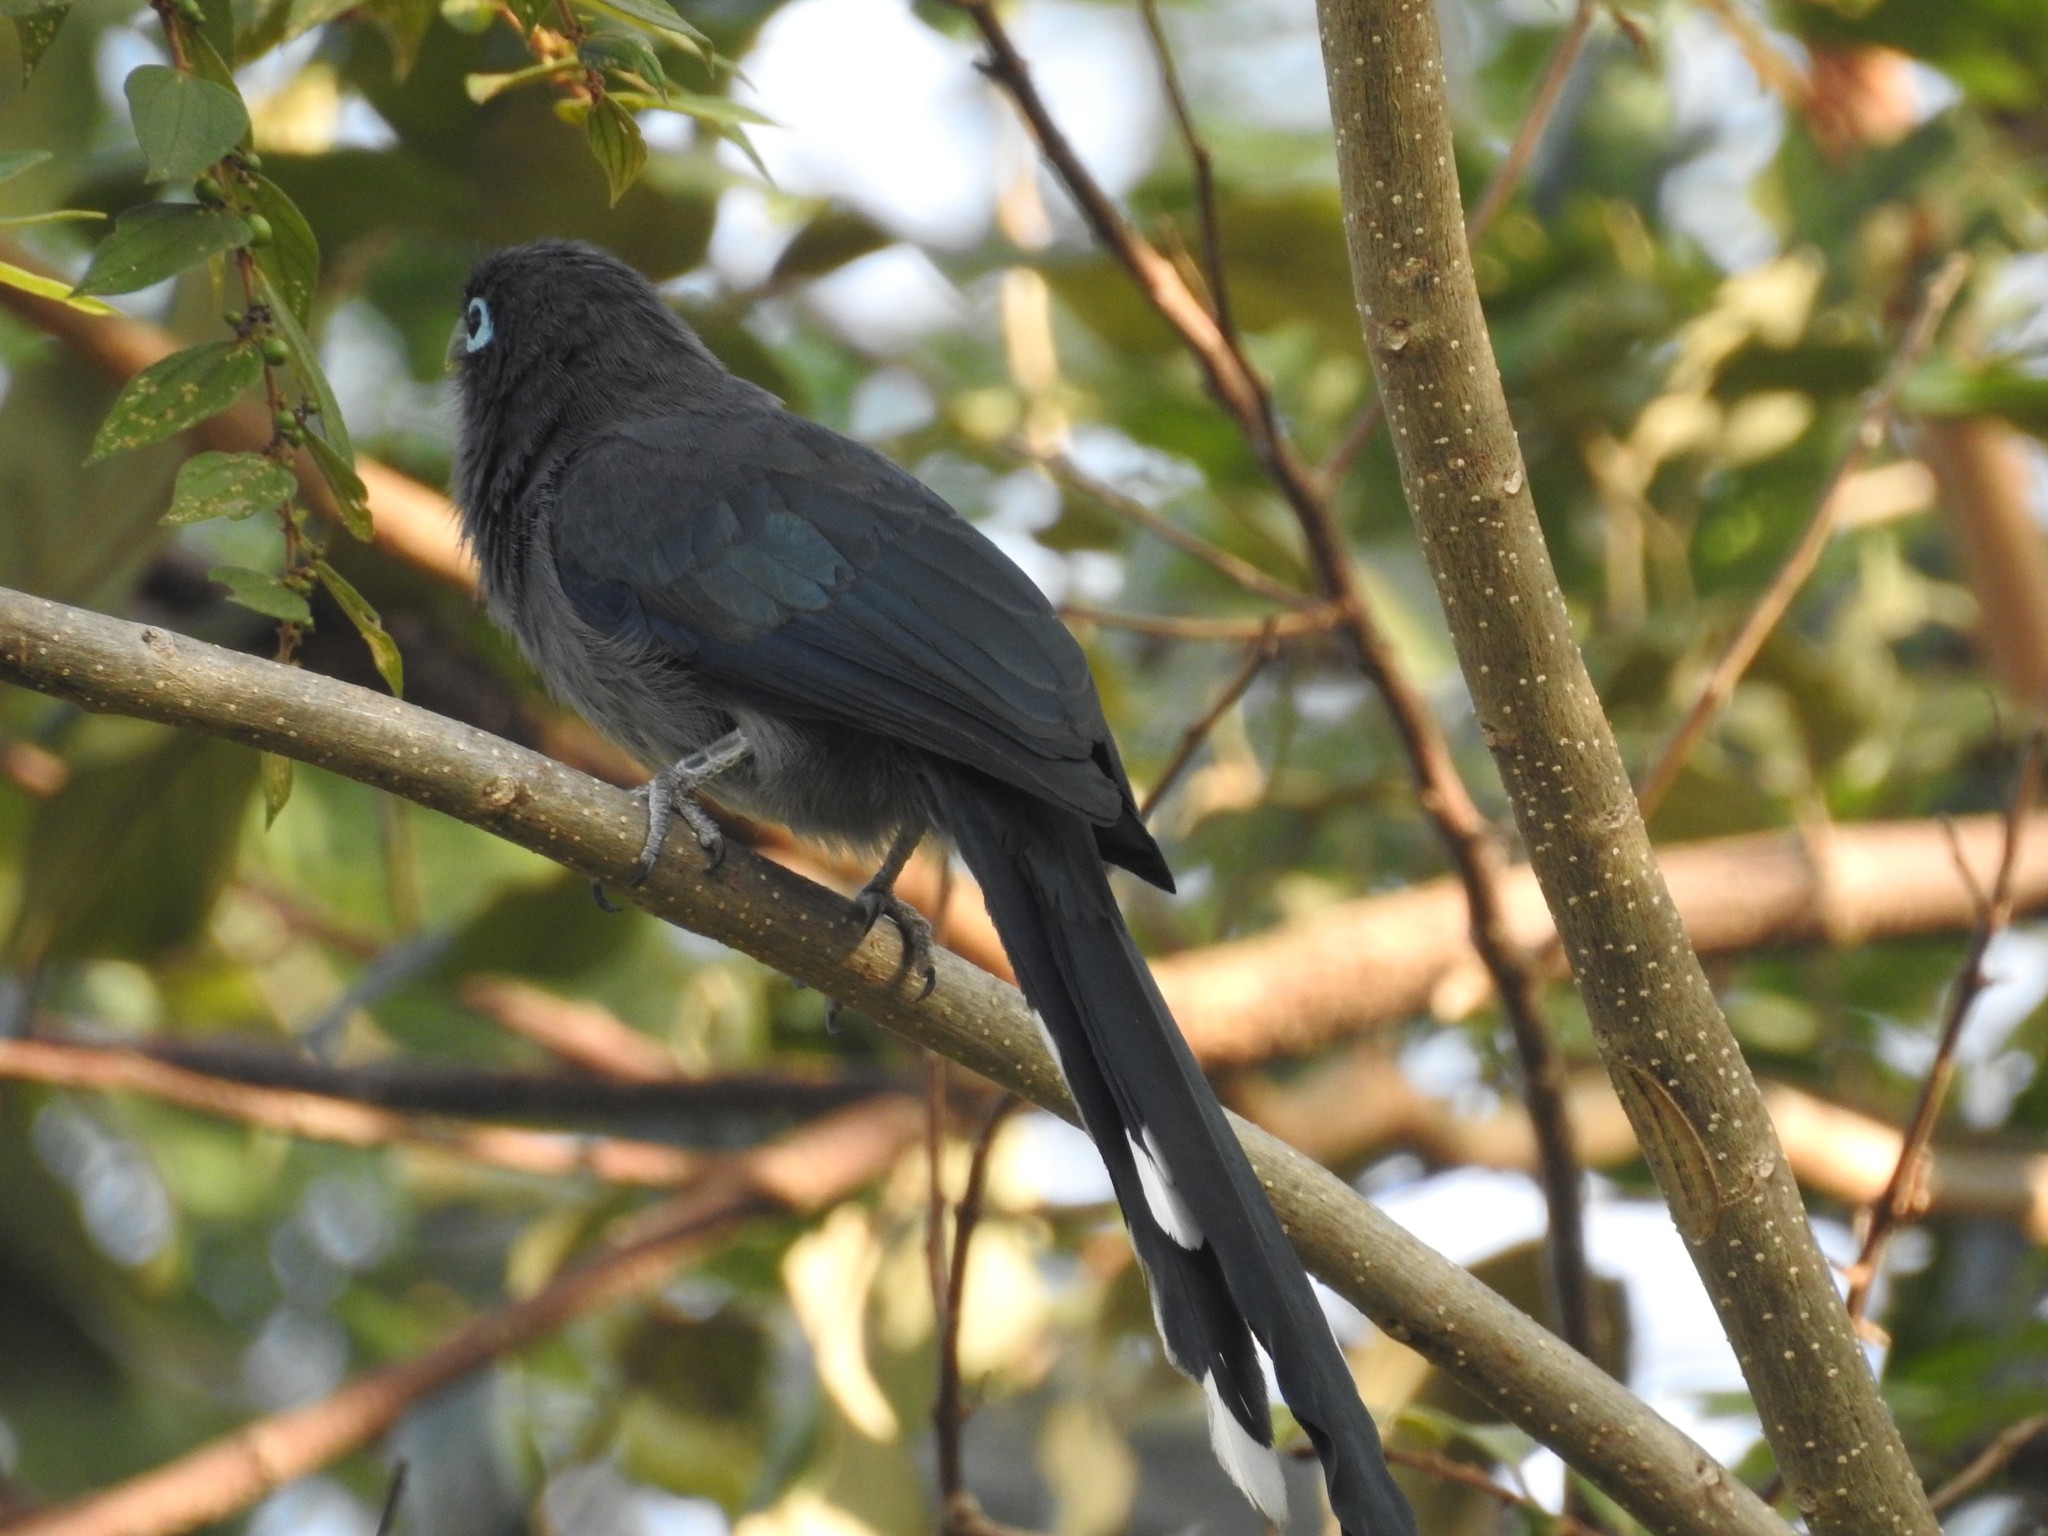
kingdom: Animalia
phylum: Chordata
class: Aves
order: Cuculiformes
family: Cuculidae
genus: Rhopodytes
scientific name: Rhopodytes viridirostris
